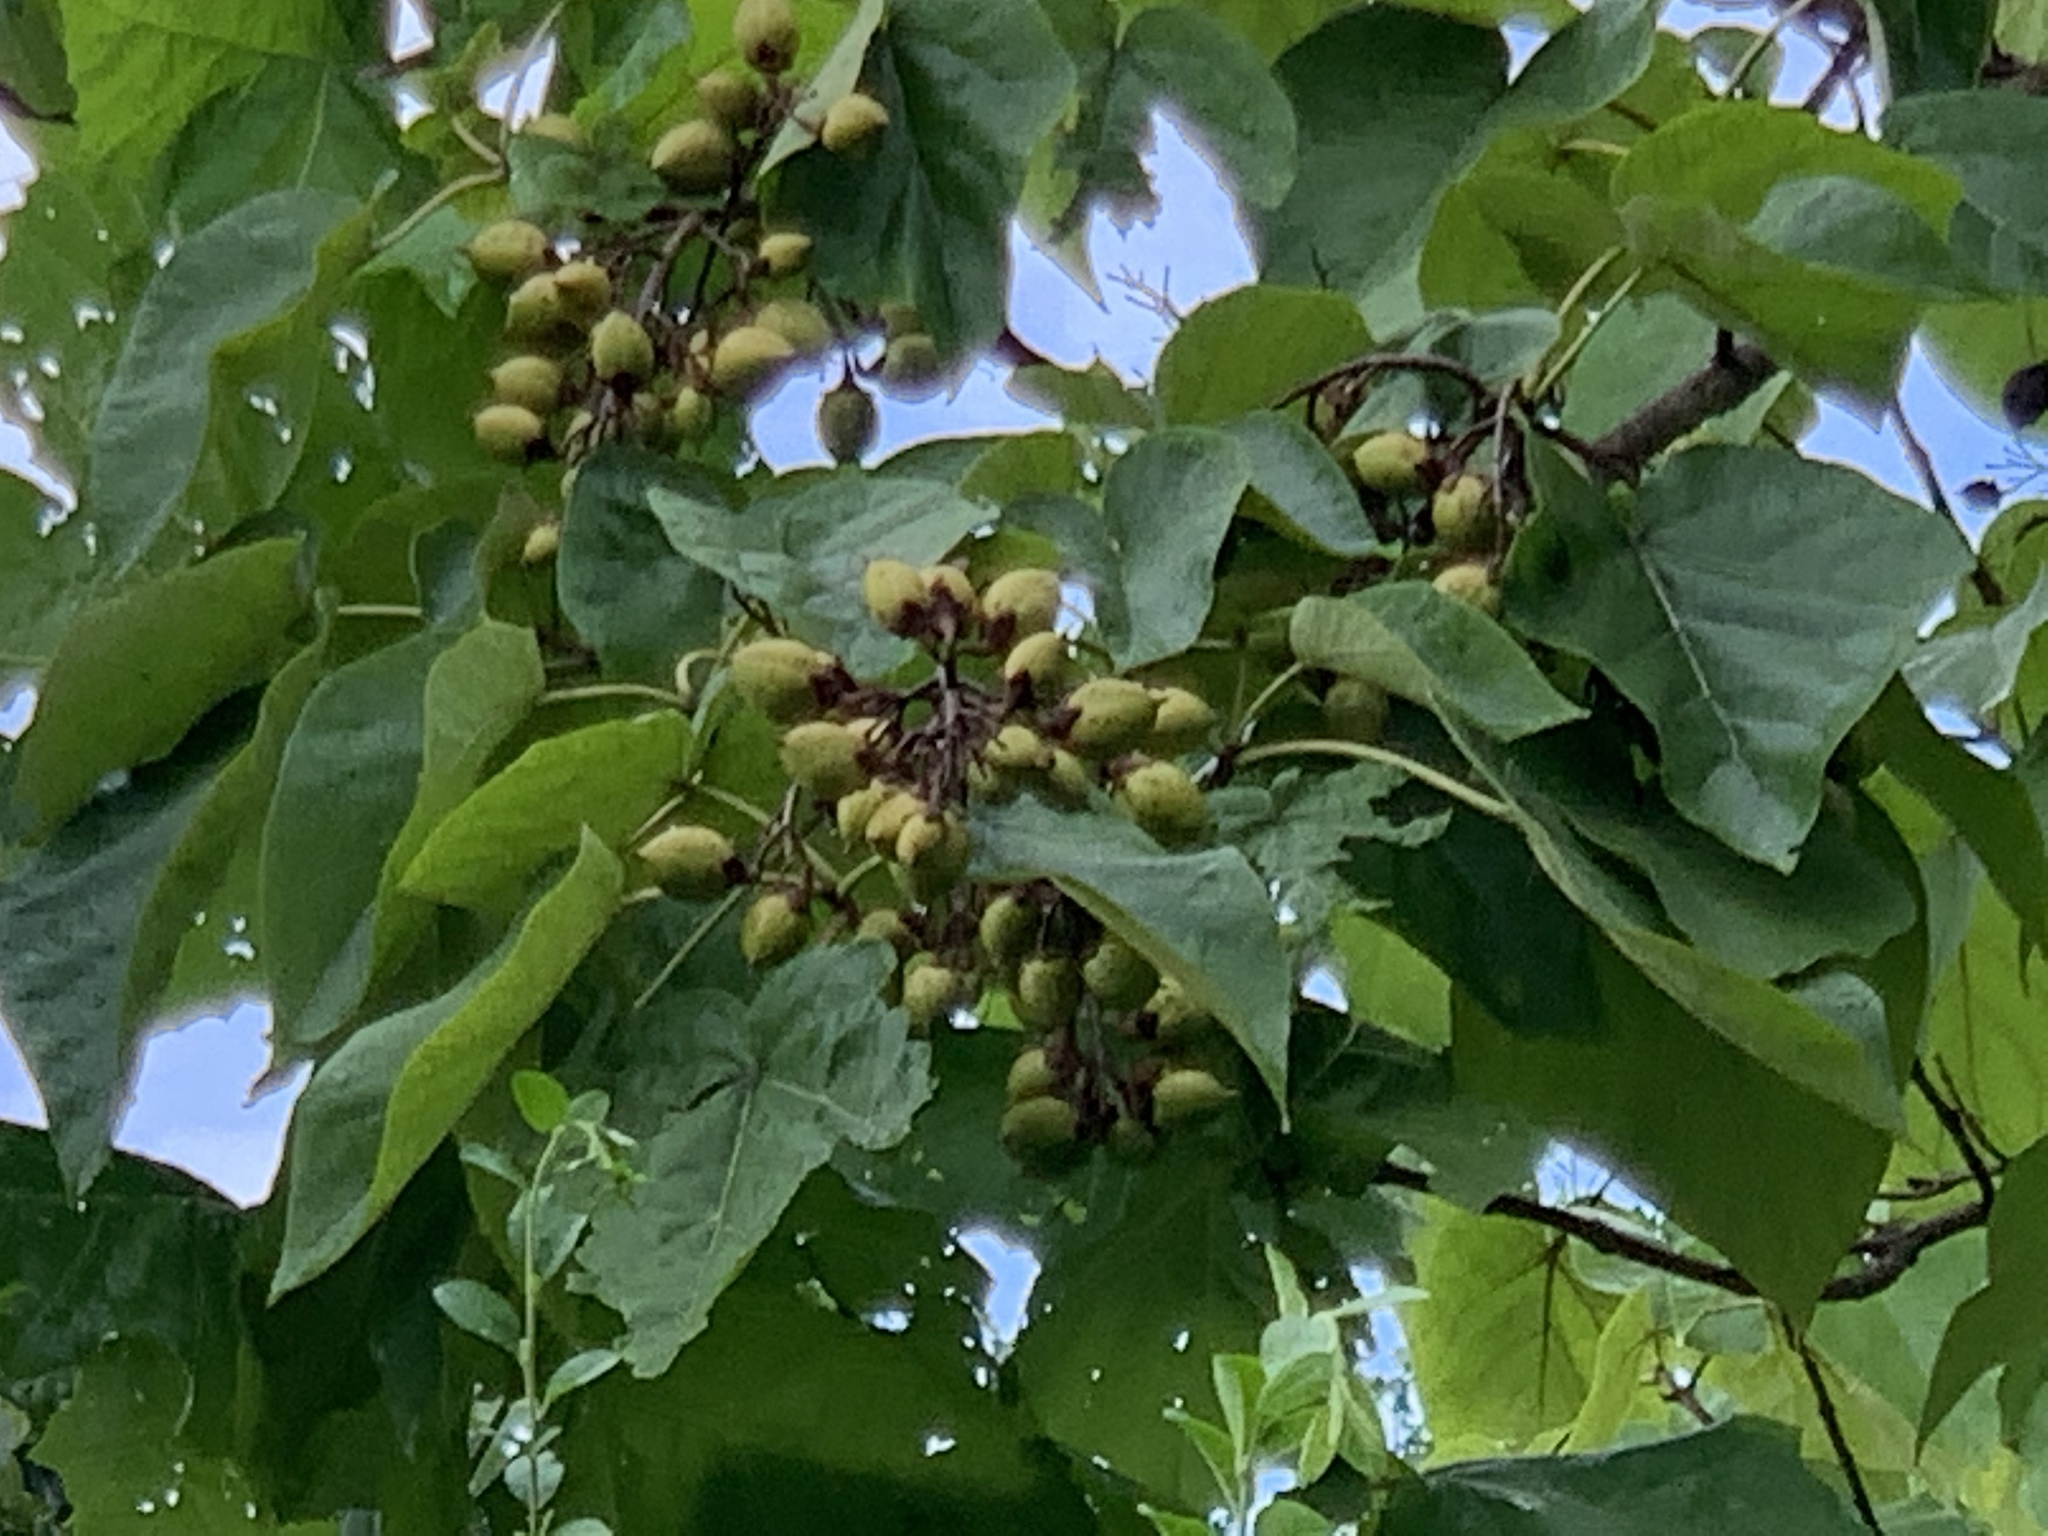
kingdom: Plantae
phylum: Tracheophyta
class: Magnoliopsida
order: Lamiales
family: Paulowniaceae
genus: Paulownia
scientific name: Paulownia tomentosa
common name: Foxglove-tree
